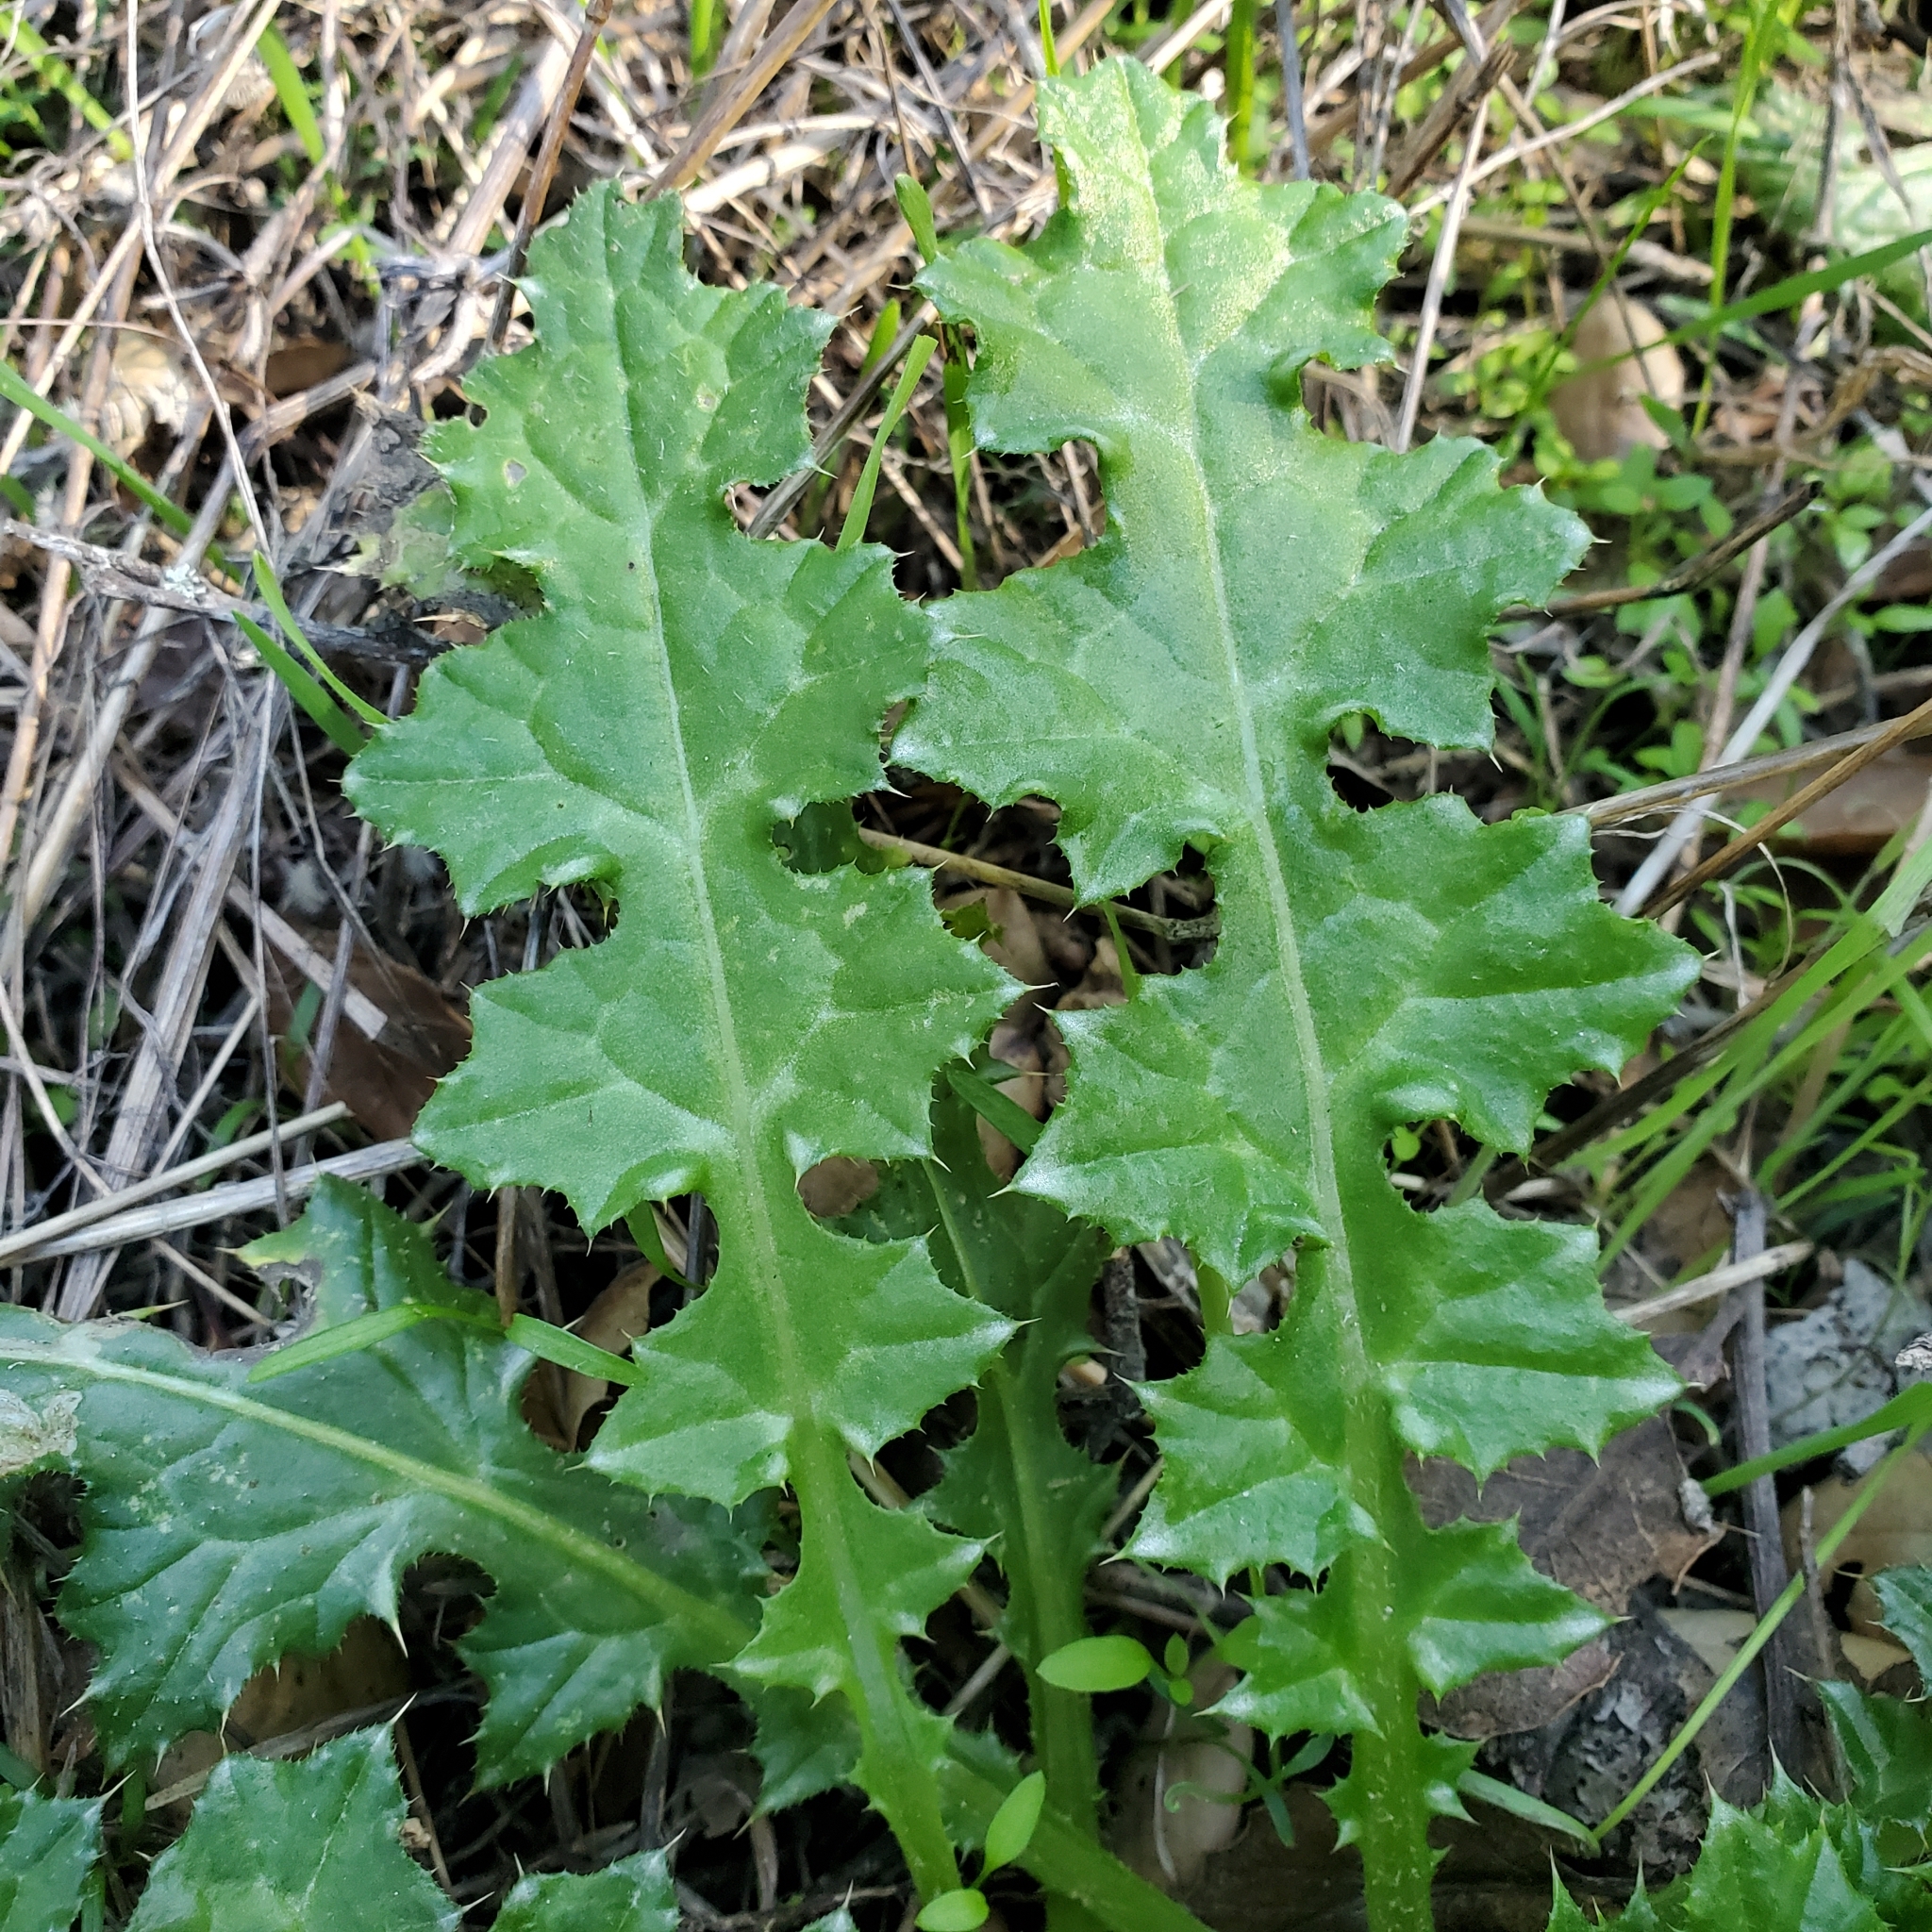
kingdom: Plantae
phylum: Tracheophyta
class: Magnoliopsida
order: Asterales
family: Asteraceae
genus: Carduus
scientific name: Carduus pycnocephalus
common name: Plymouth thistle
